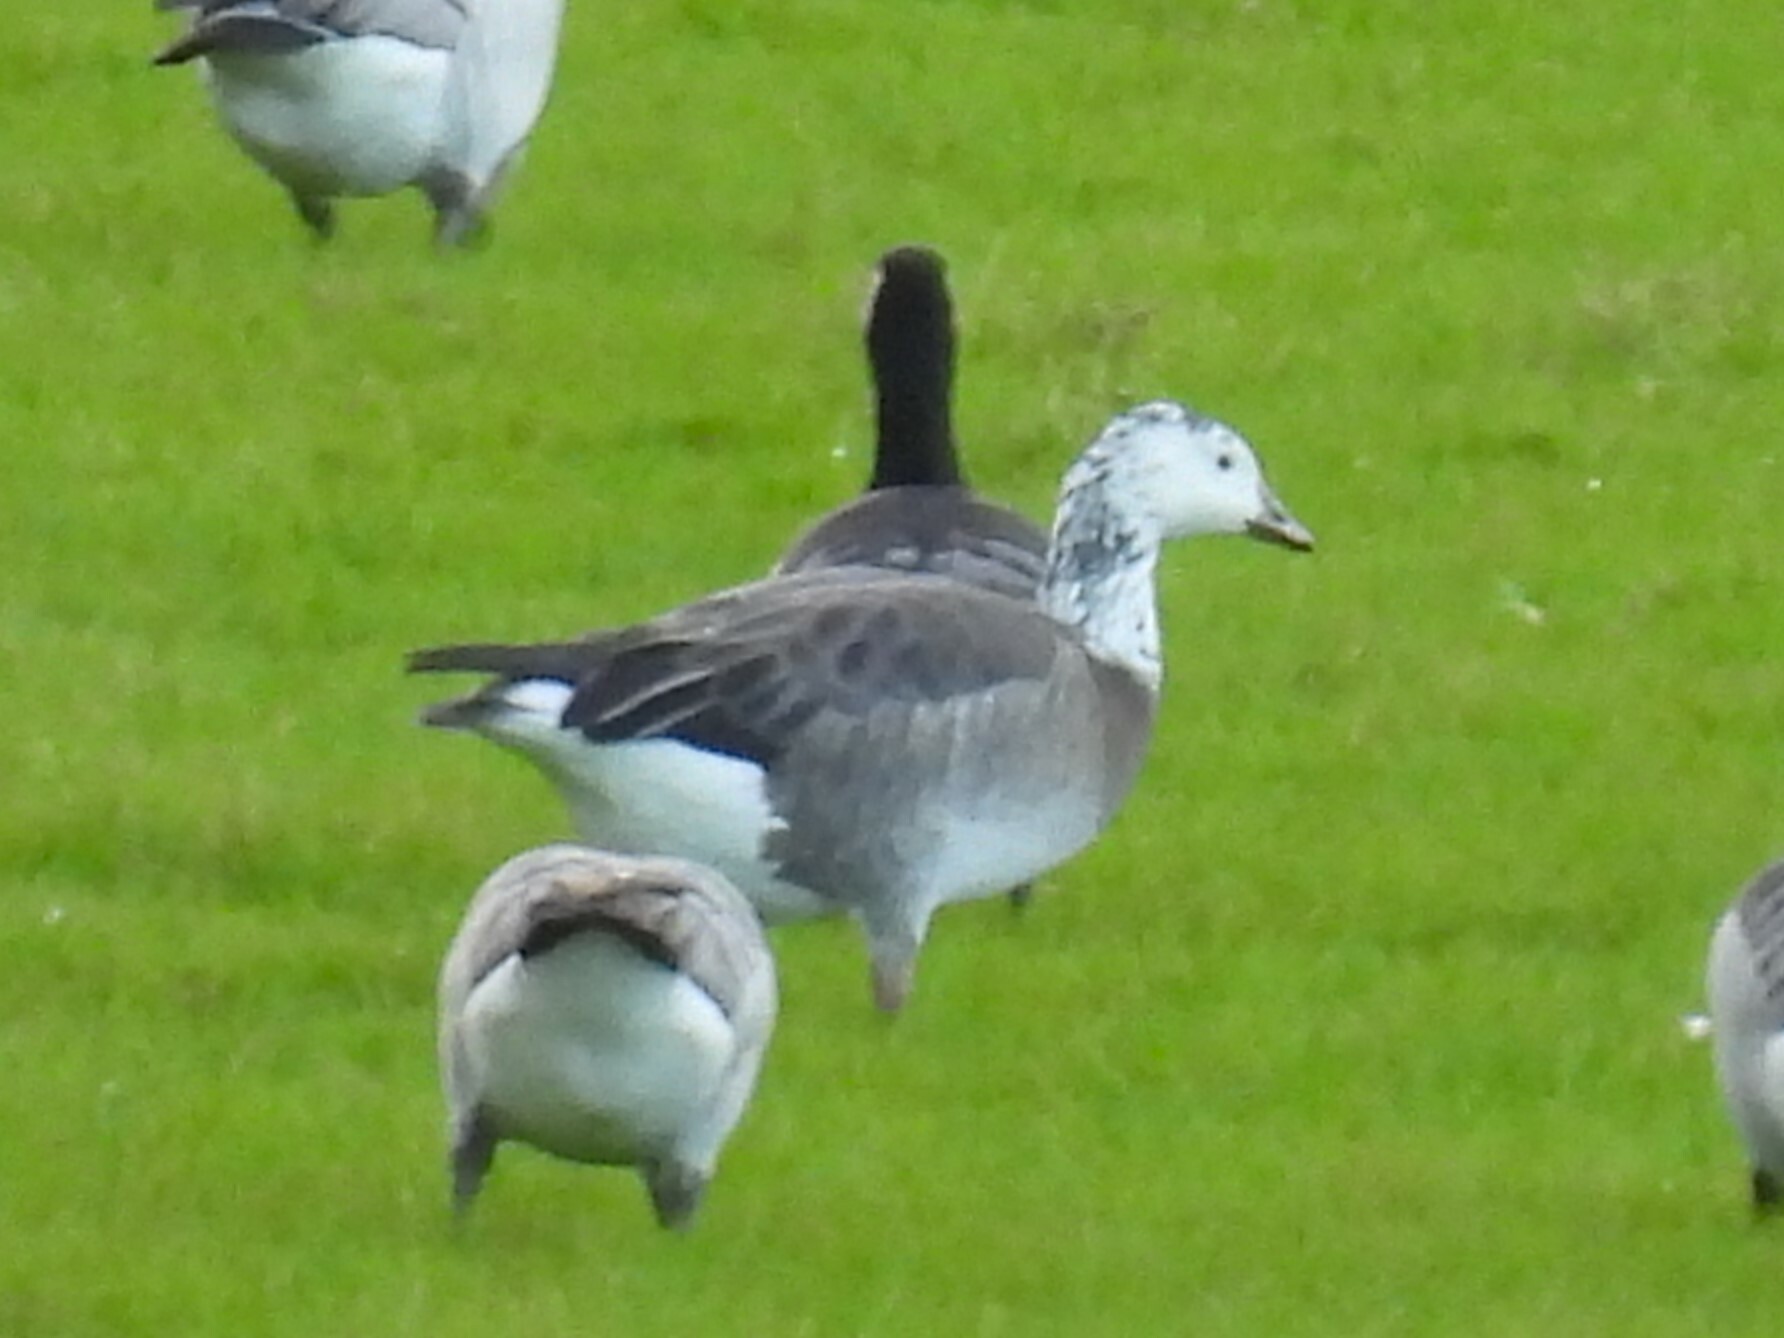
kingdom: Animalia
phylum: Chordata
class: Aves
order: Anseriformes
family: Anatidae
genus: Anser
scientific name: Anser caerulescens
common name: Snow goose
